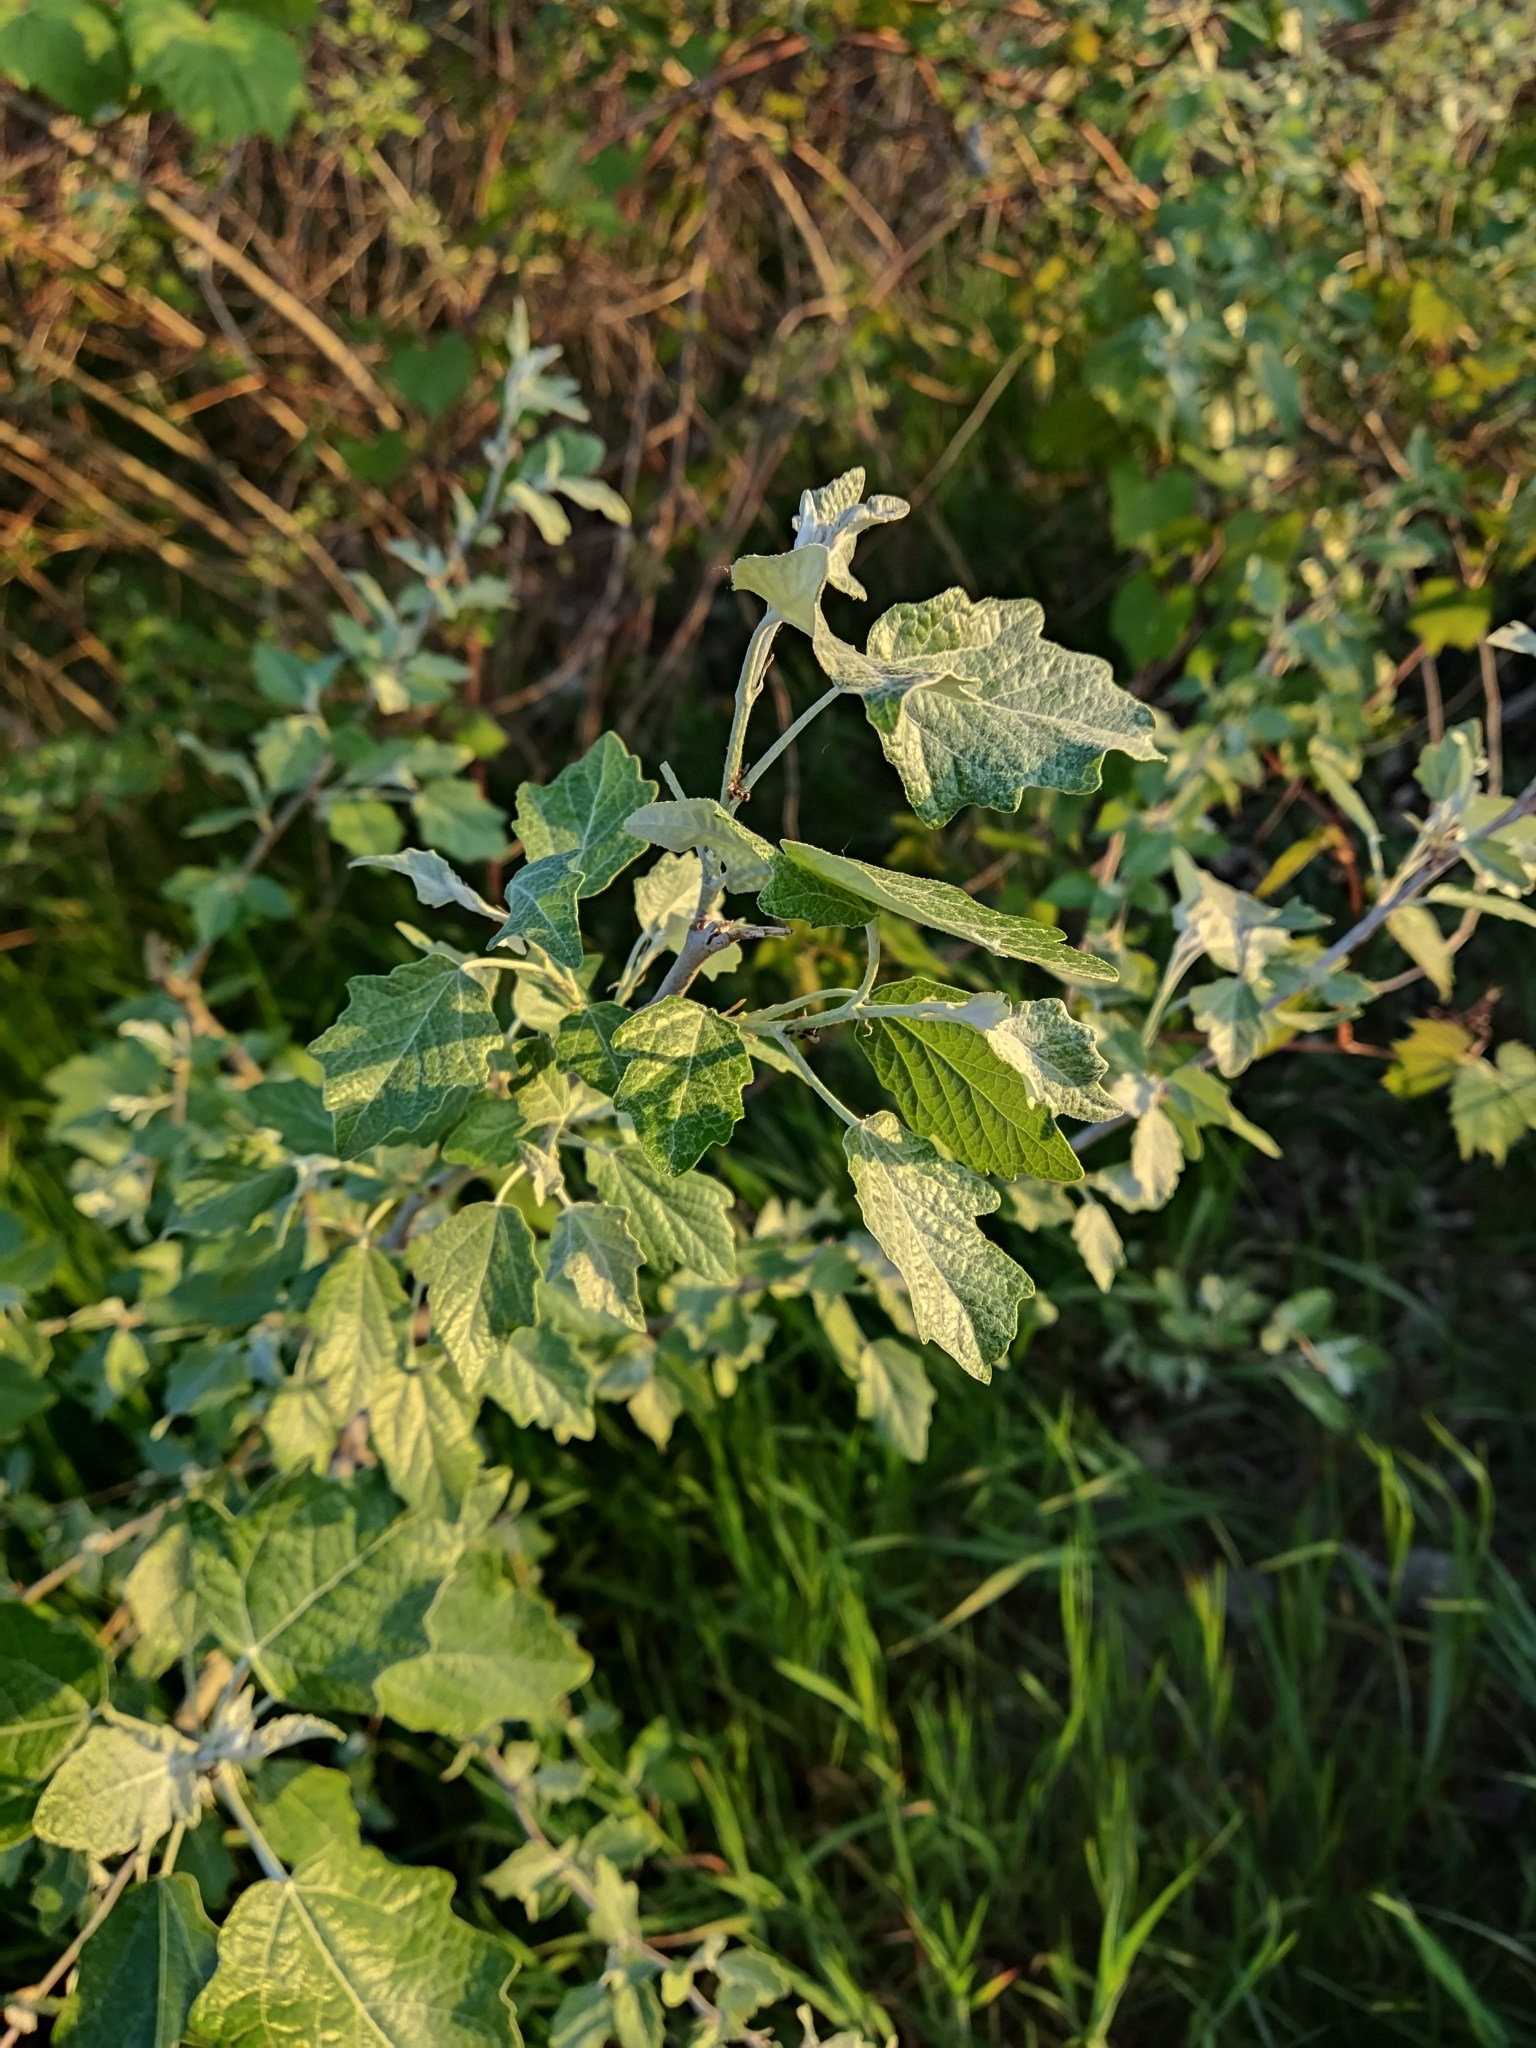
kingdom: Plantae
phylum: Tracheophyta
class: Magnoliopsida
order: Malpighiales
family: Salicaceae
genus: Populus
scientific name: Populus alba
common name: White poplar
